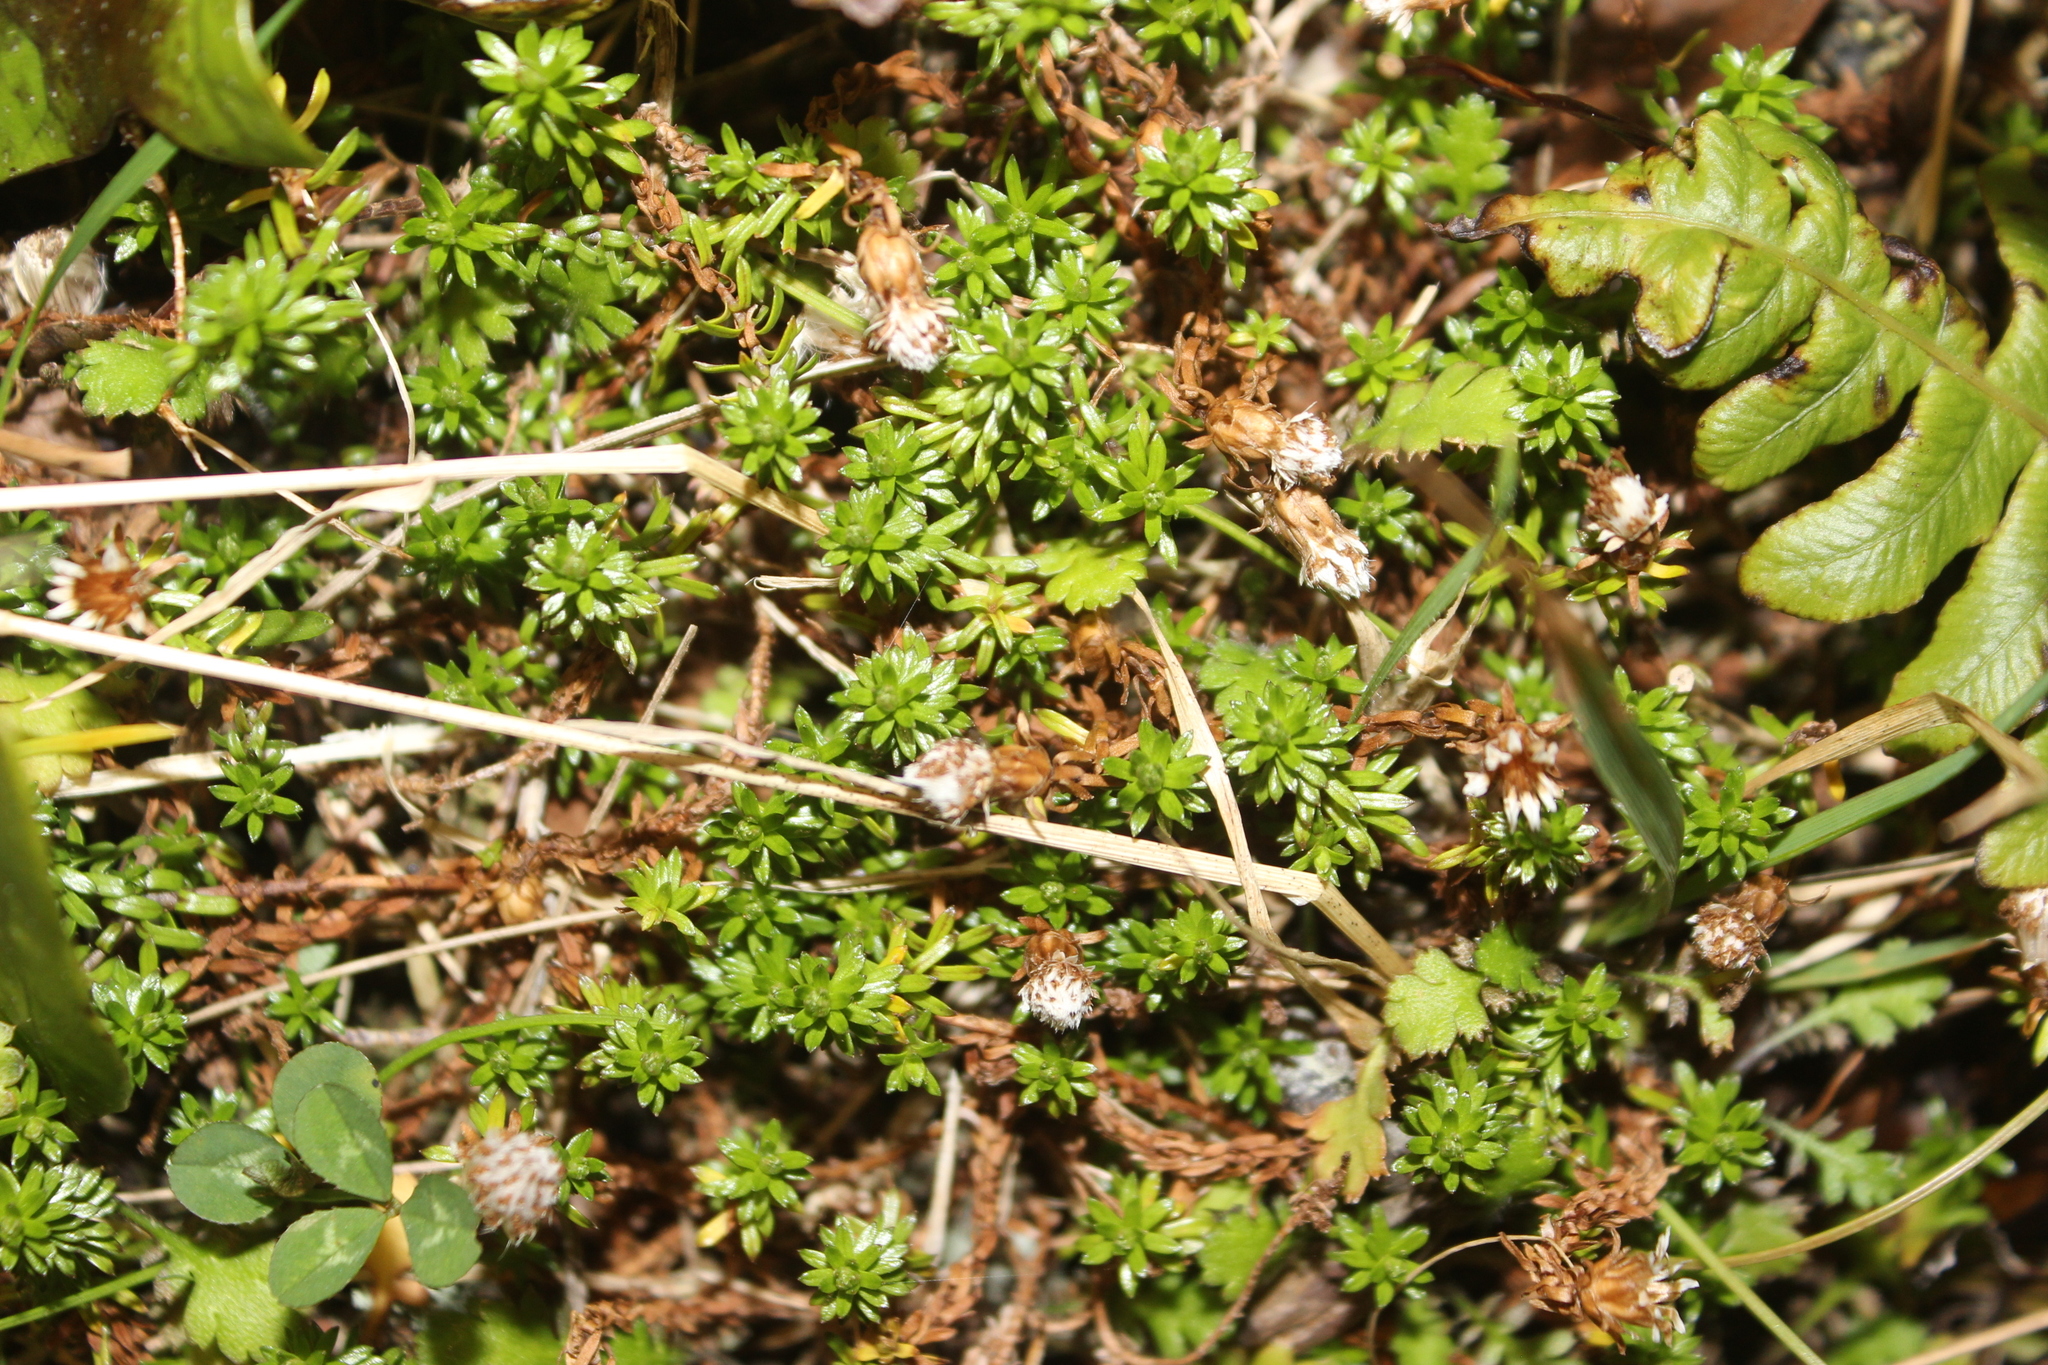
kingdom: Plantae
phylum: Tracheophyta
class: Magnoliopsida
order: Asterales
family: Asteraceae
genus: Raoulia
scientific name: Raoulia glabra
